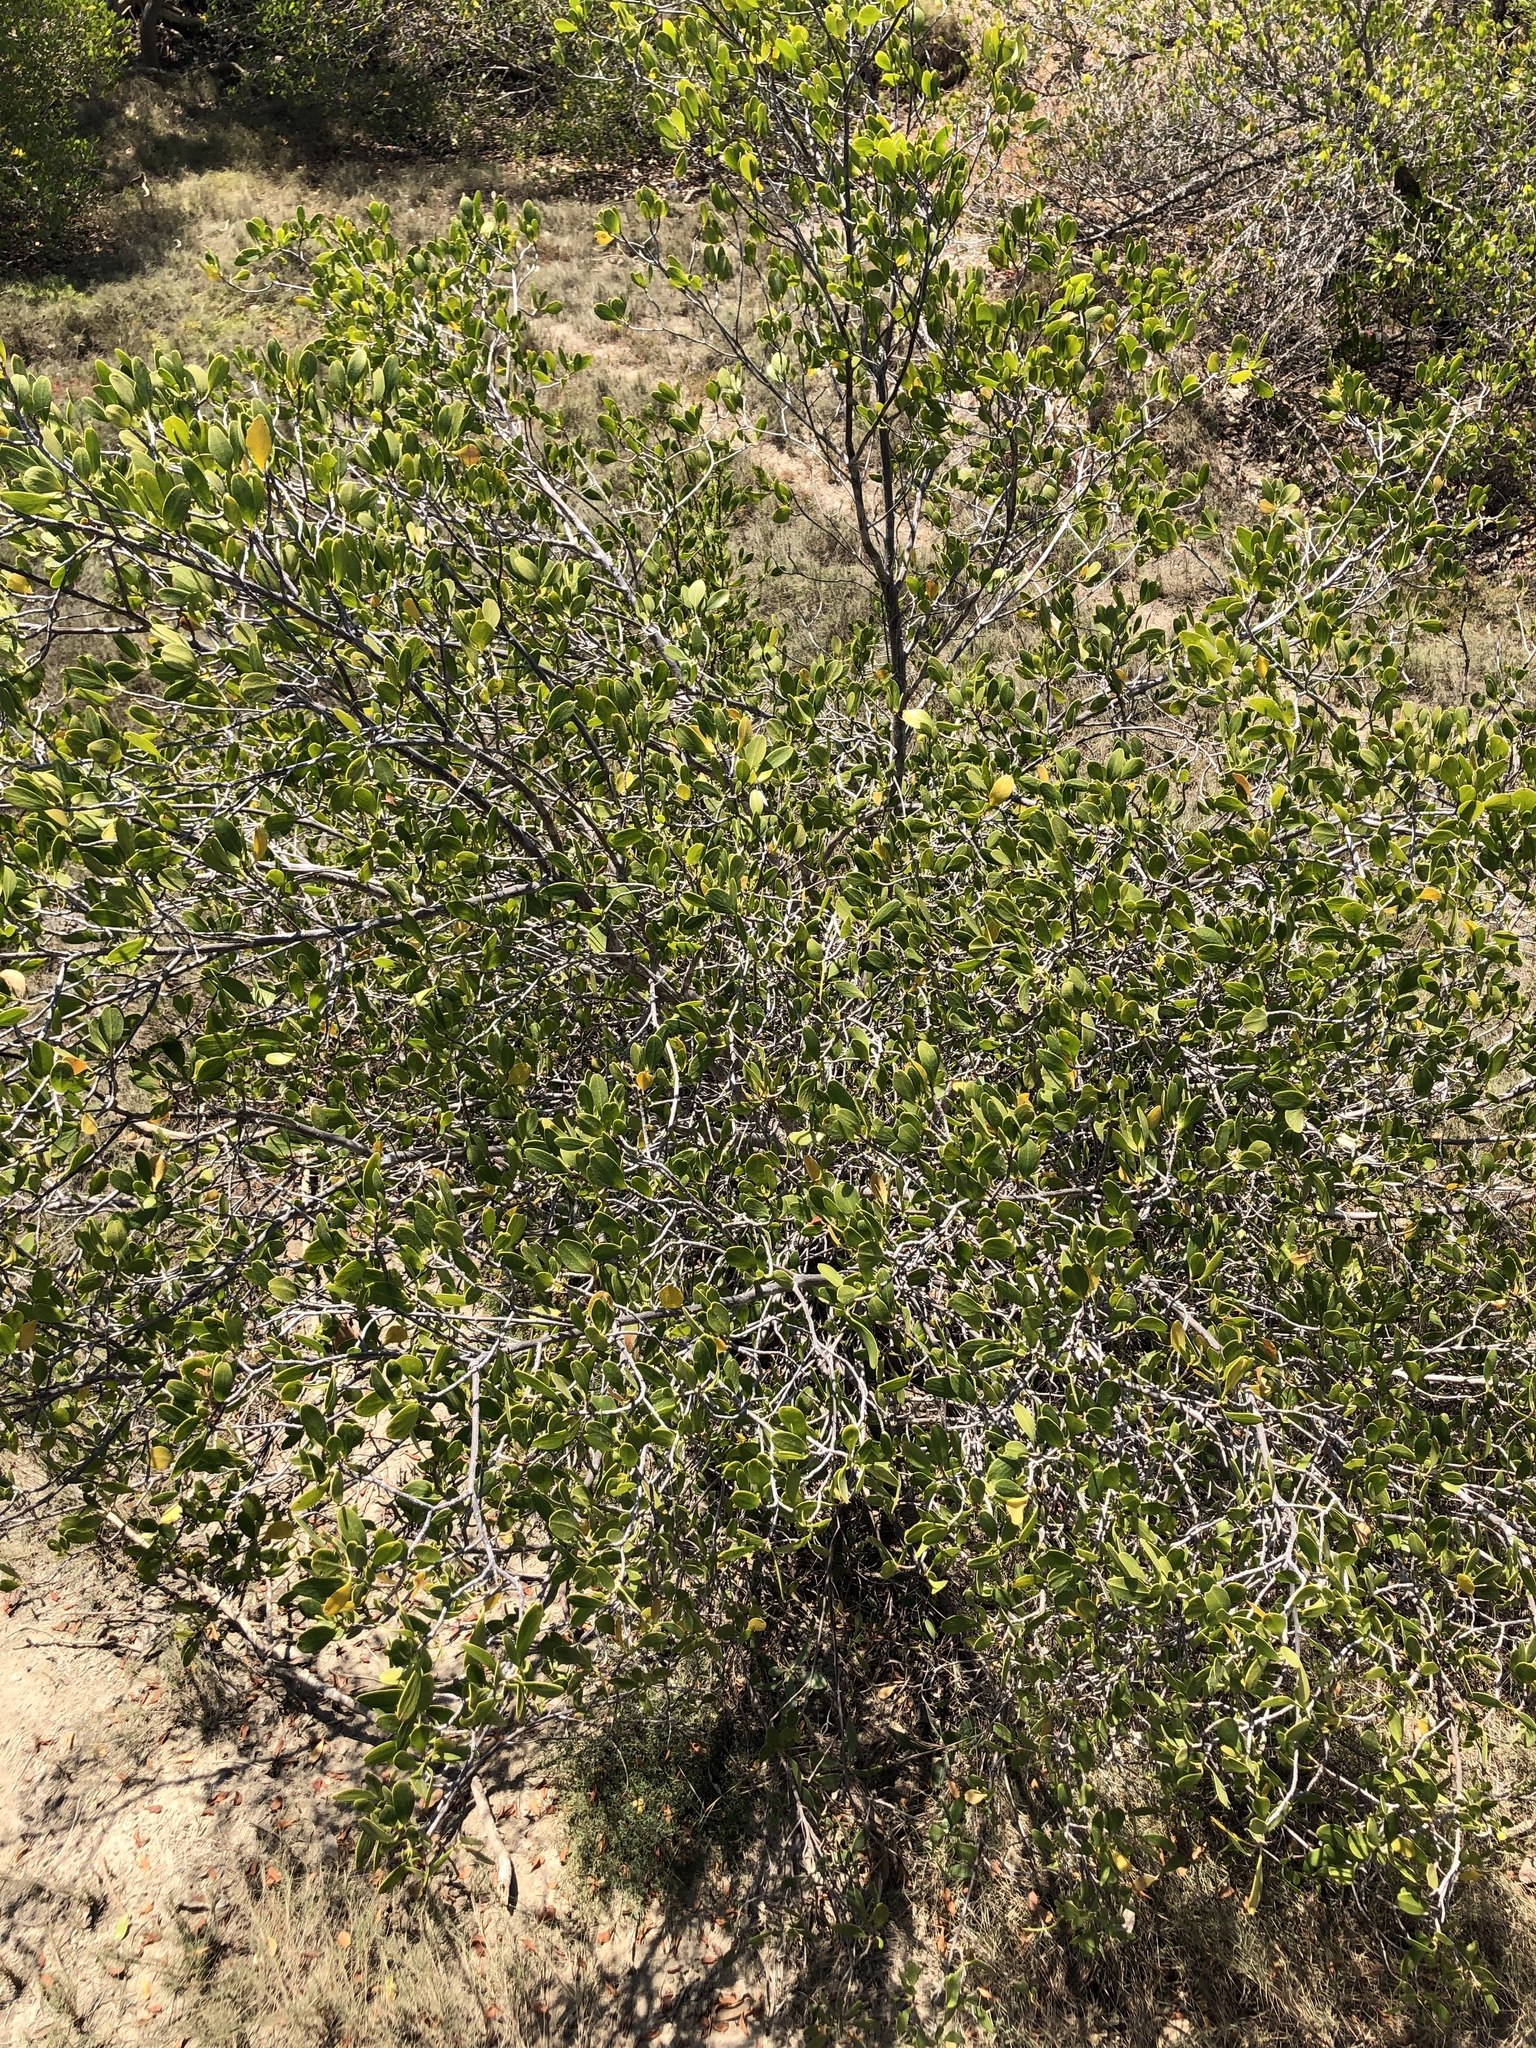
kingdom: Plantae
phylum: Tracheophyta
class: Magnoliopsida
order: Myrtales
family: Combretaceae
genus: Lumnitzera
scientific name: Lumnitzera racemosa
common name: White-flowered black mangrove
